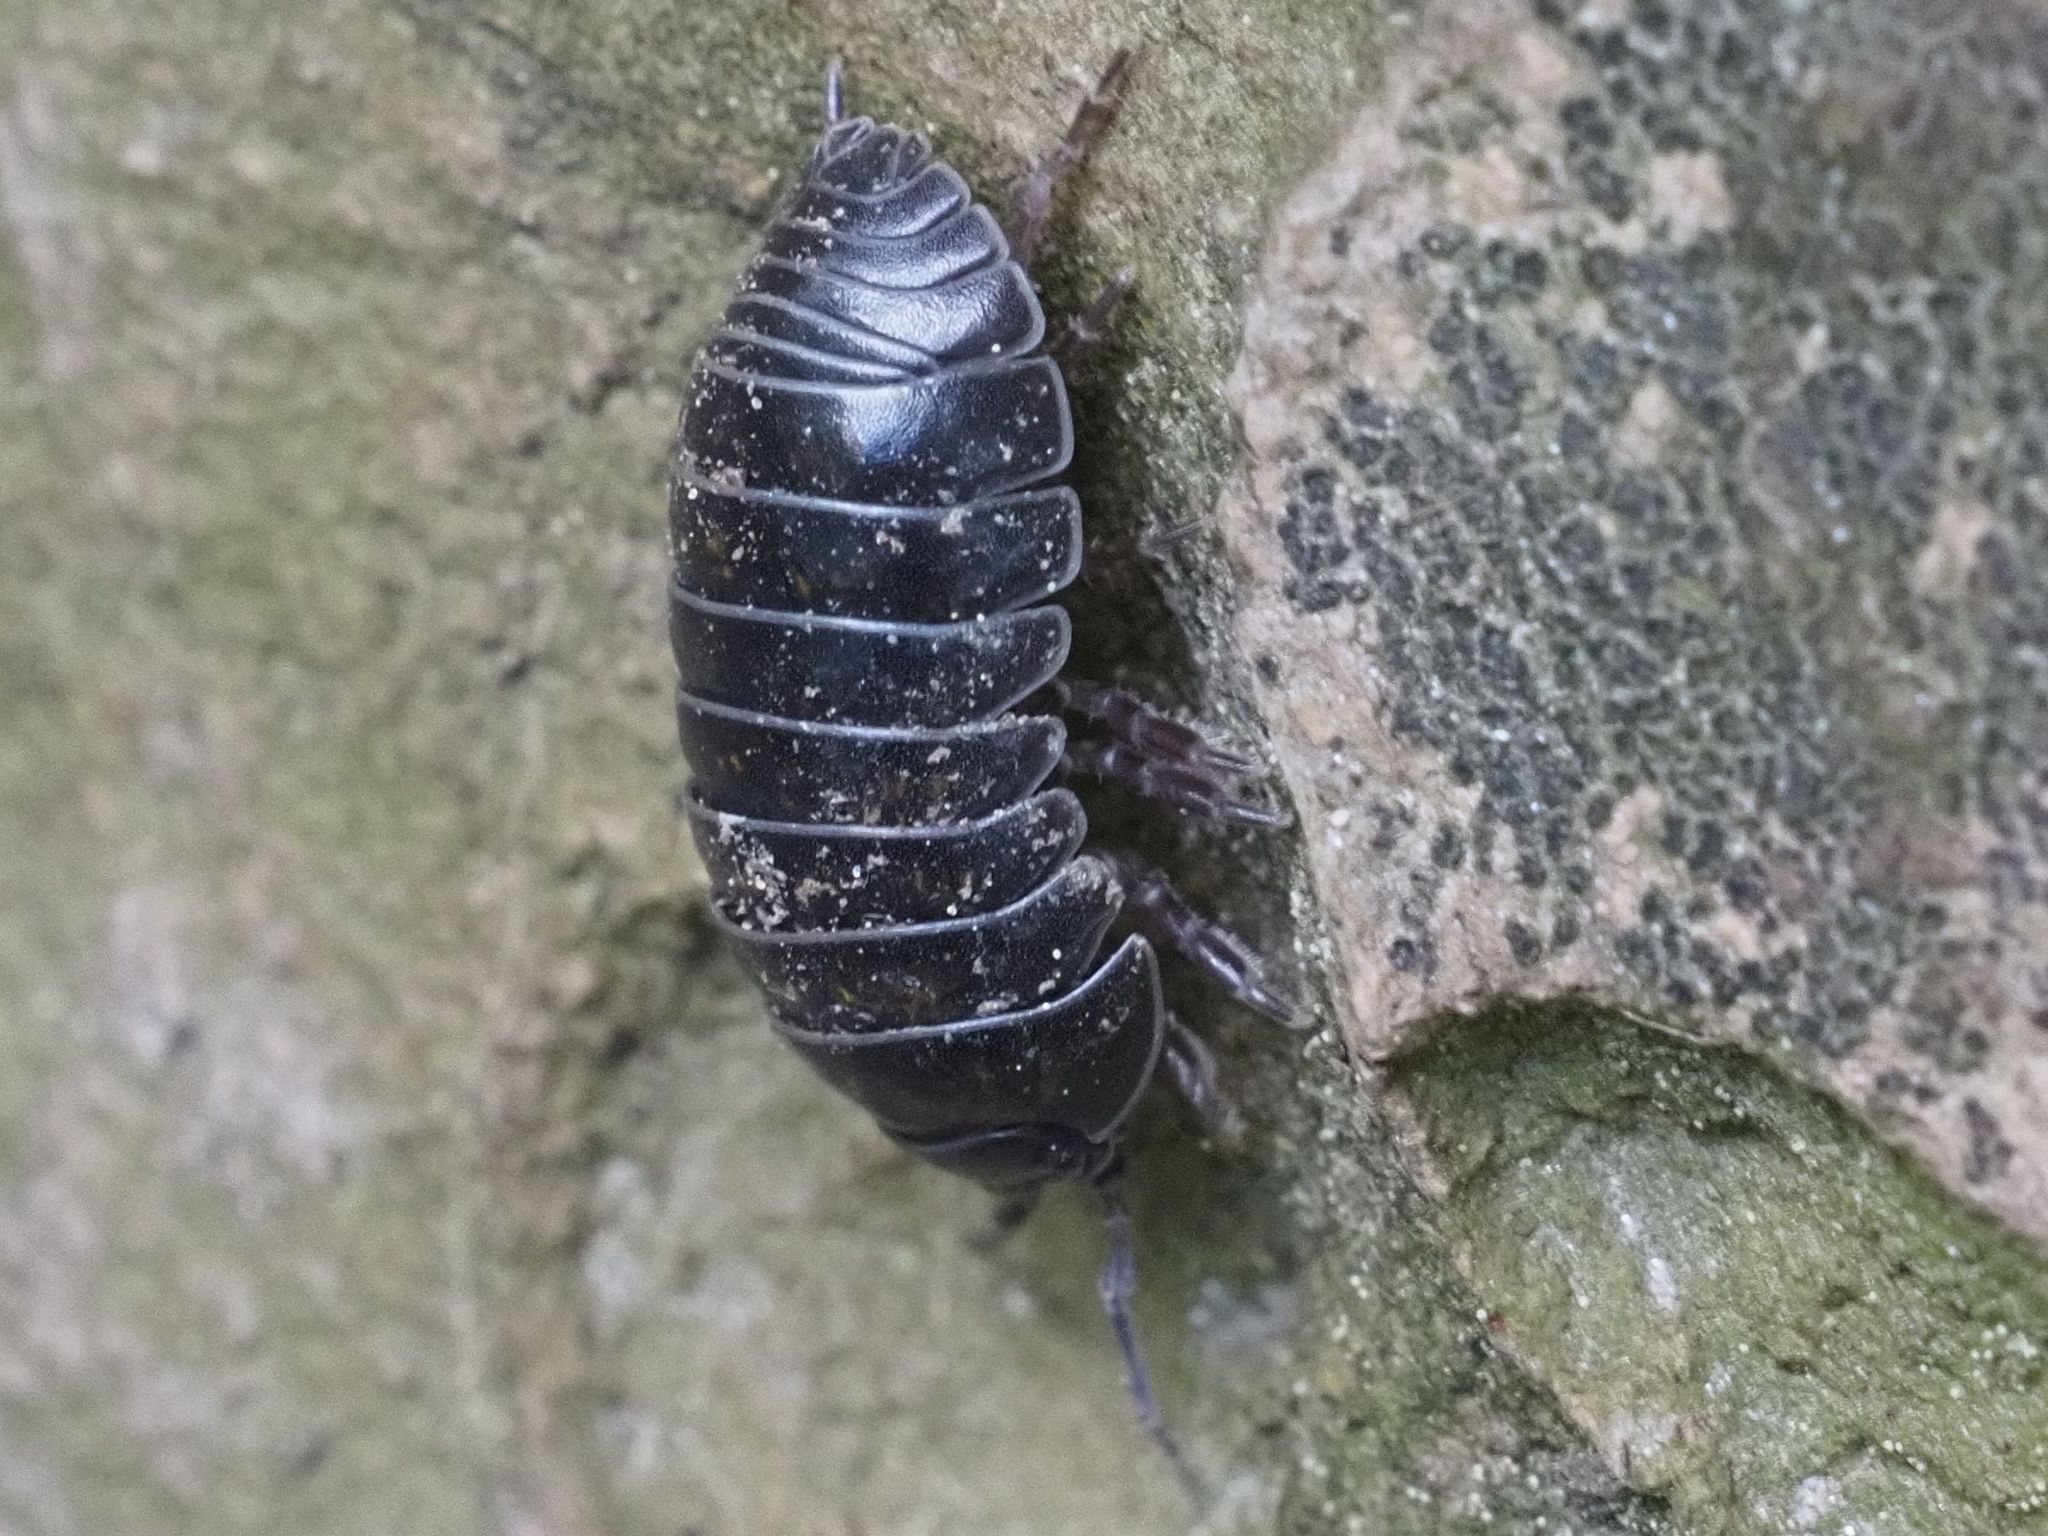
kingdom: Animalia
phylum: Arthropoda
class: Malacostraca
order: Isopoda
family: Armadillidiidae
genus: Armadillidium
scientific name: Armadillidium vulgare
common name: Common pill woodlouse
